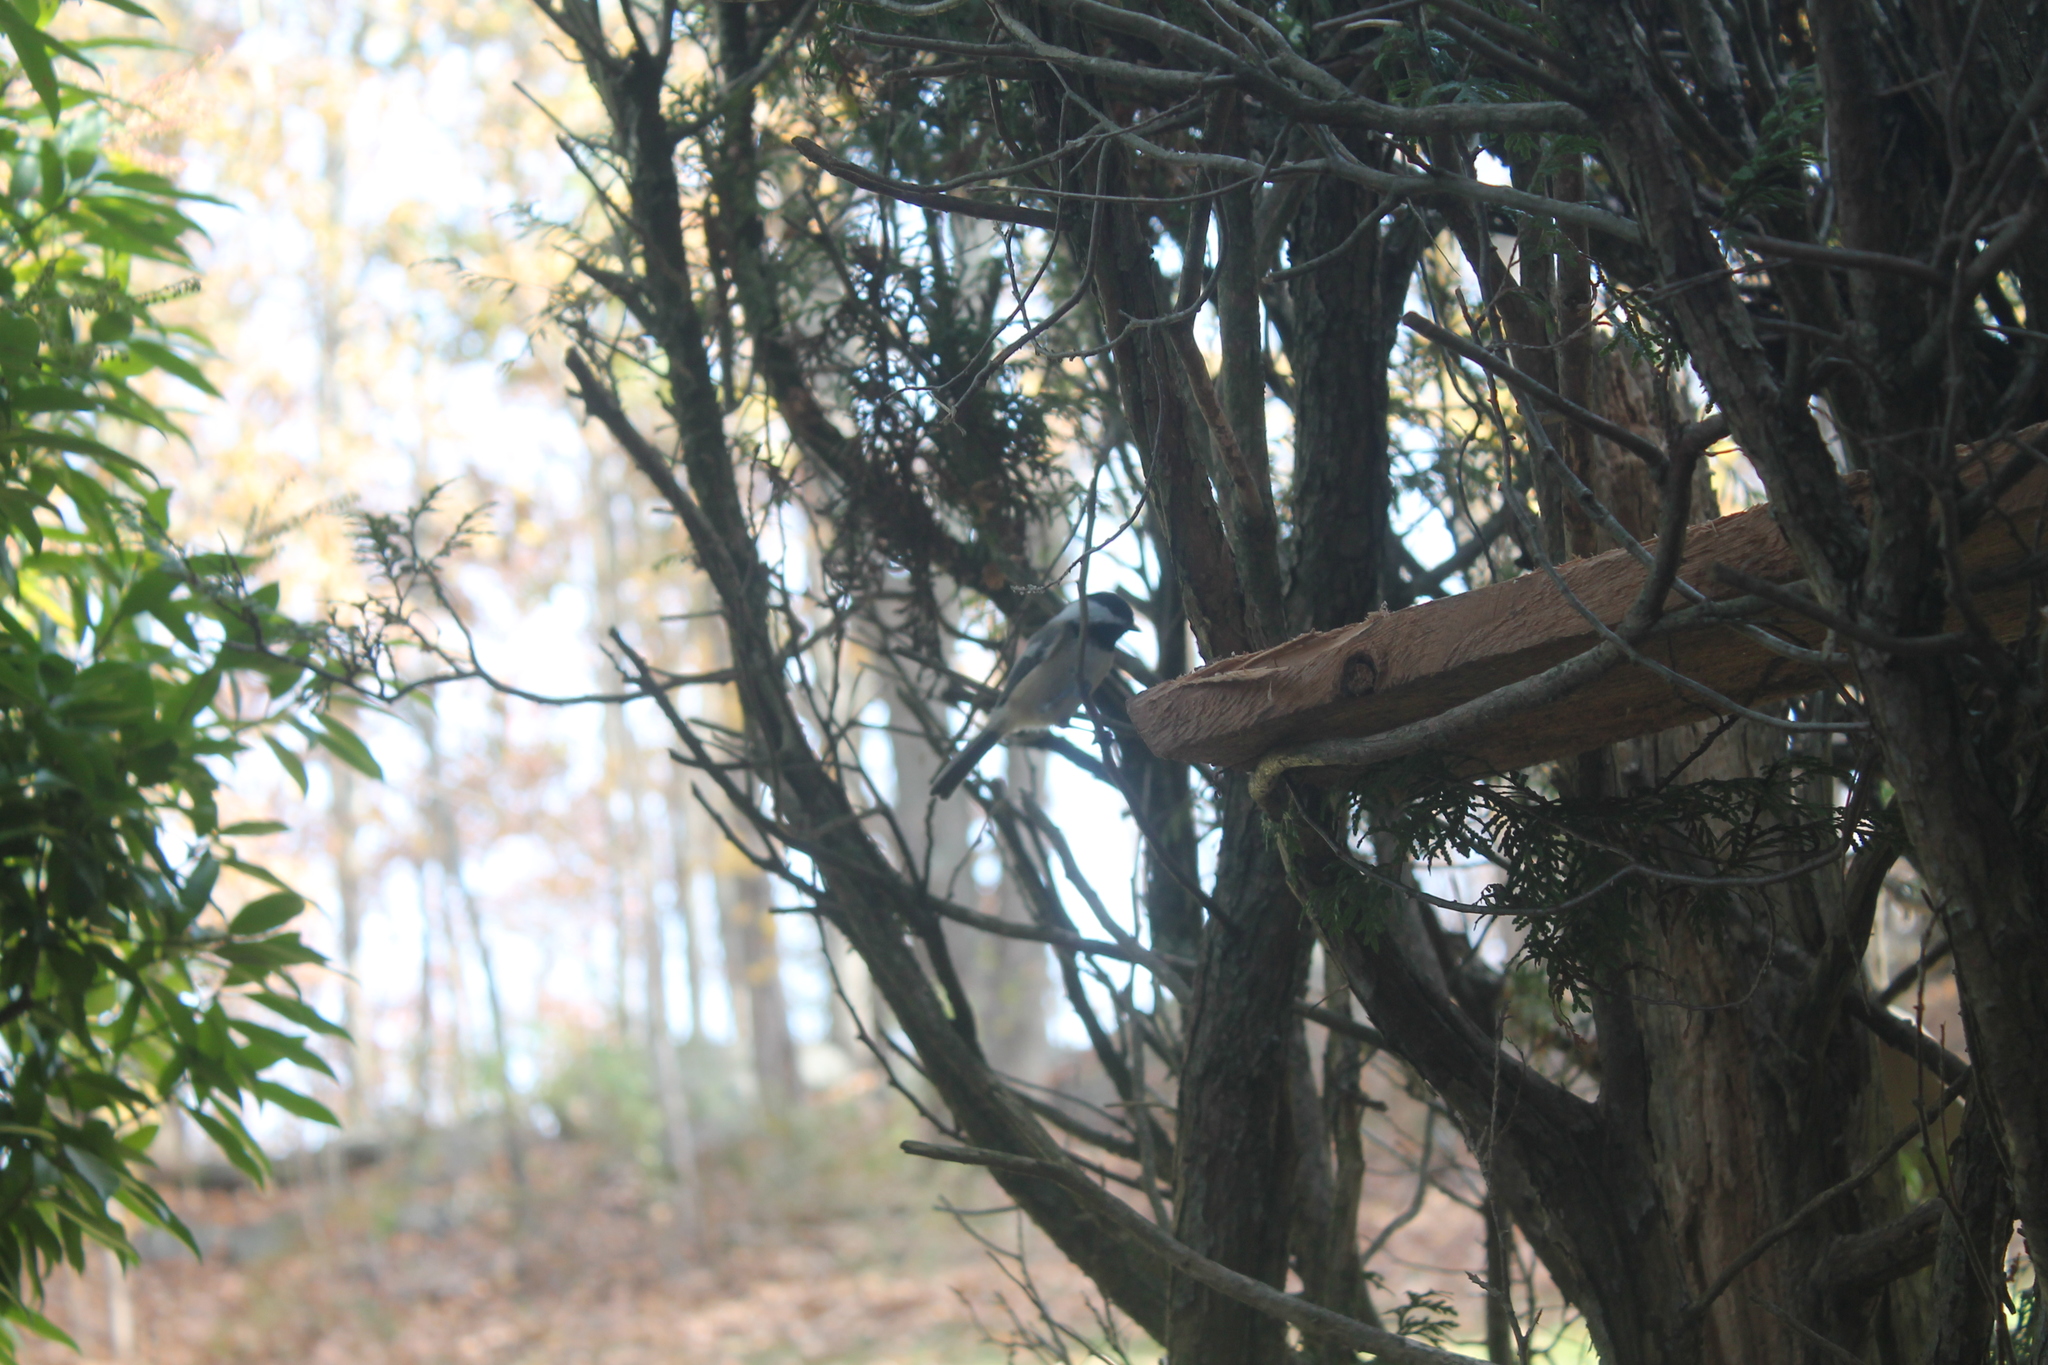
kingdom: Animalia
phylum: Chordata
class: Aves
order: Passeriformes
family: Paridae
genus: Poecile
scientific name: Poecile atricapillus
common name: Black-capped chickadee
